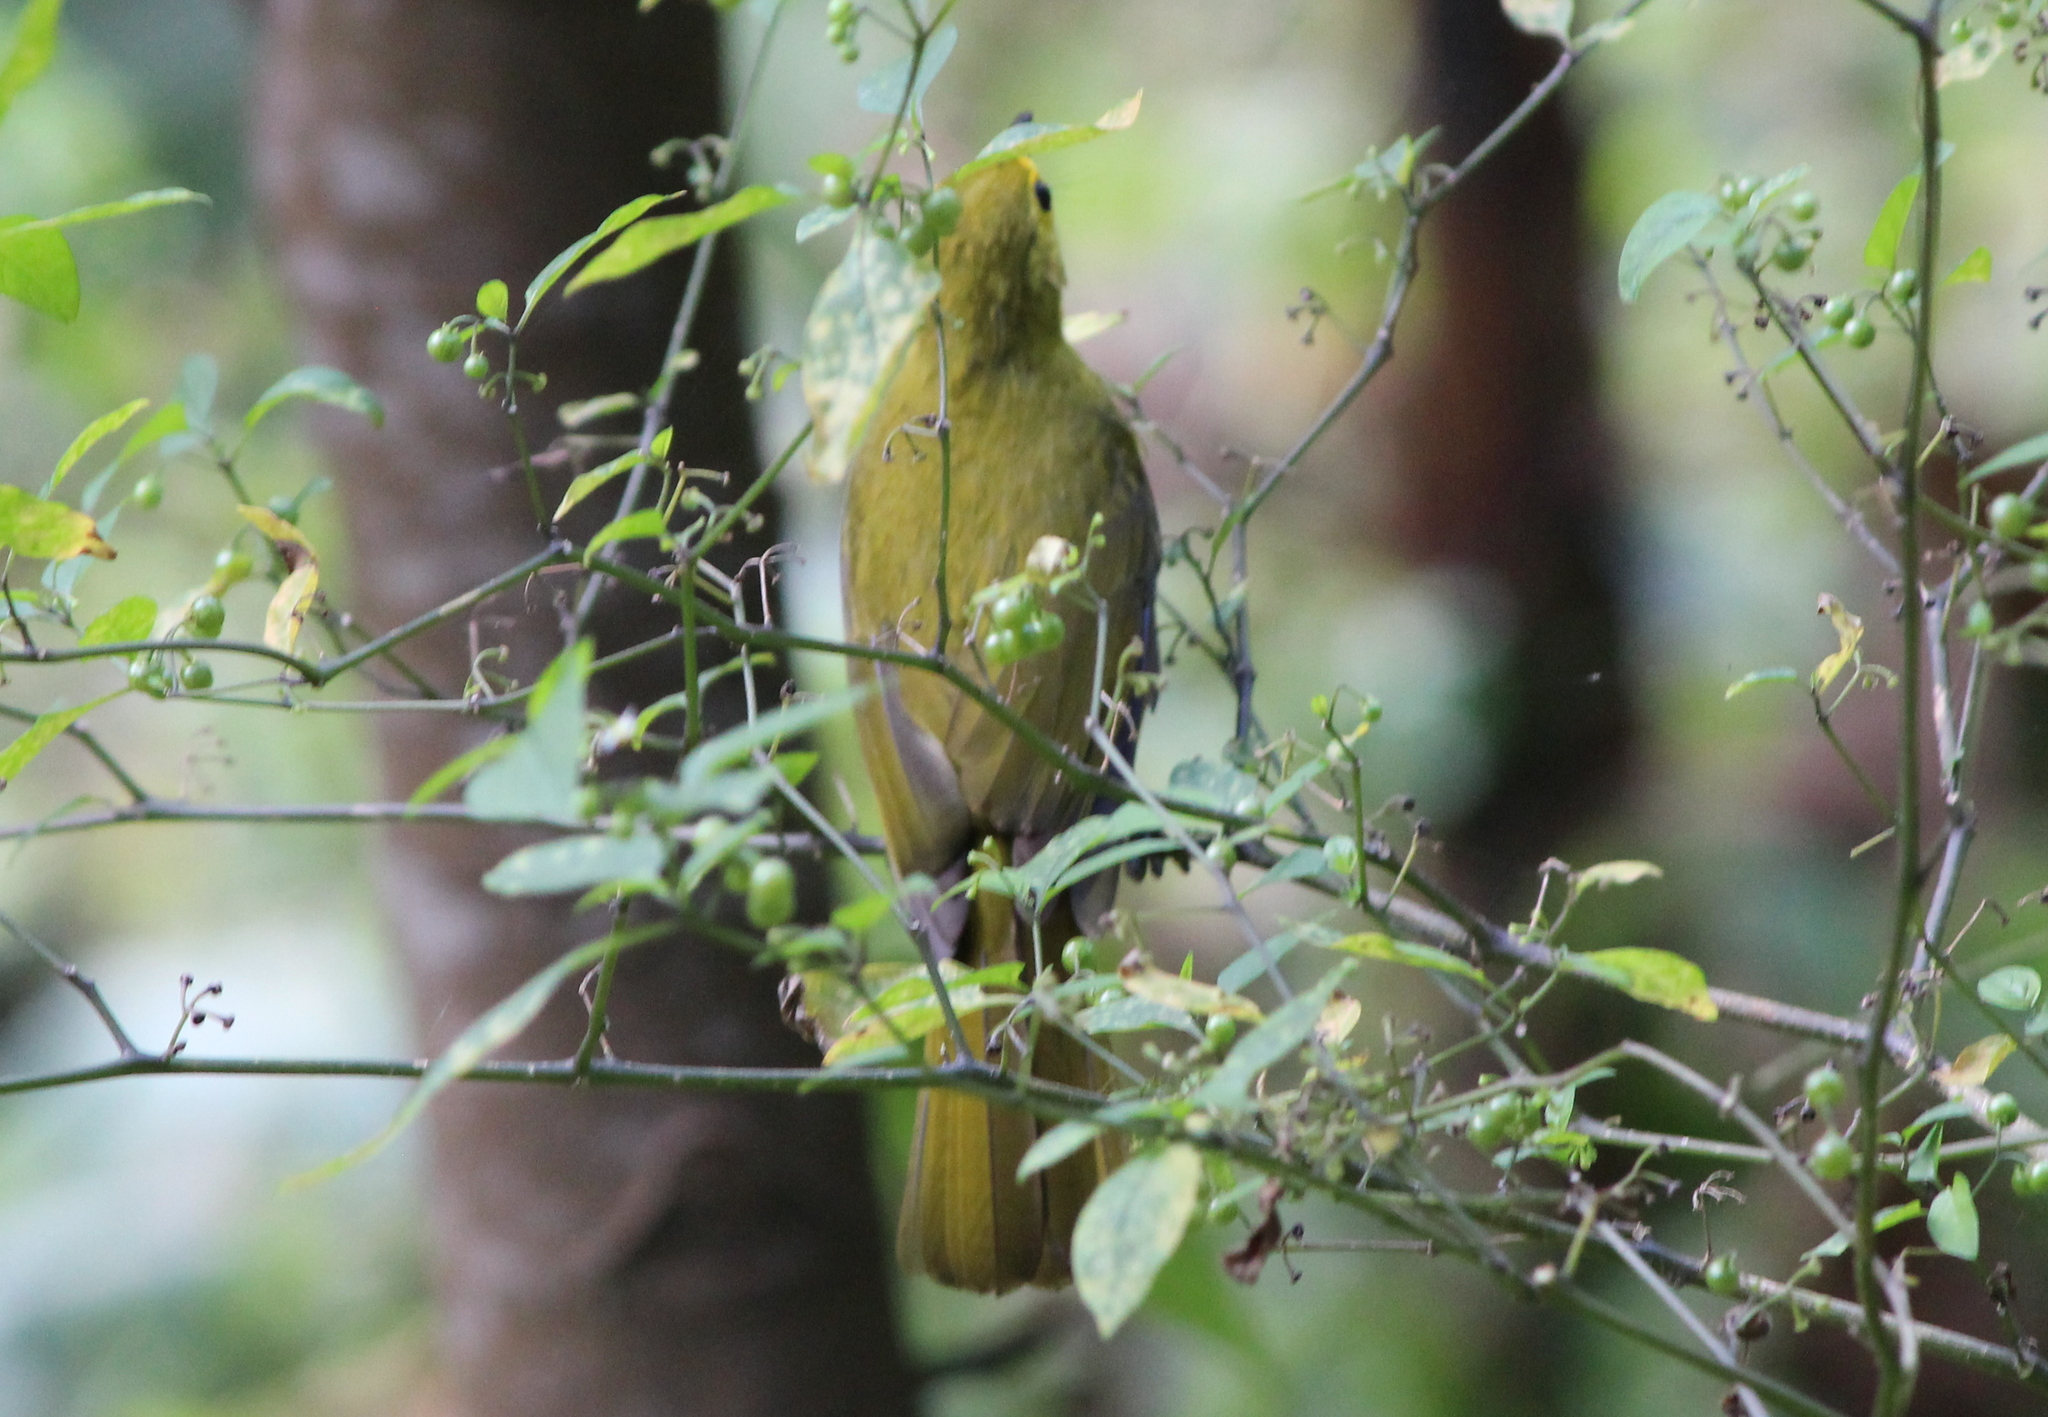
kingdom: Animalia
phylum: Chordata
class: Aves
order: Passeriformes
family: Pycnonotidae
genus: Acritillas
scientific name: Acritillas indica
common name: Yellow-browed bulbul
